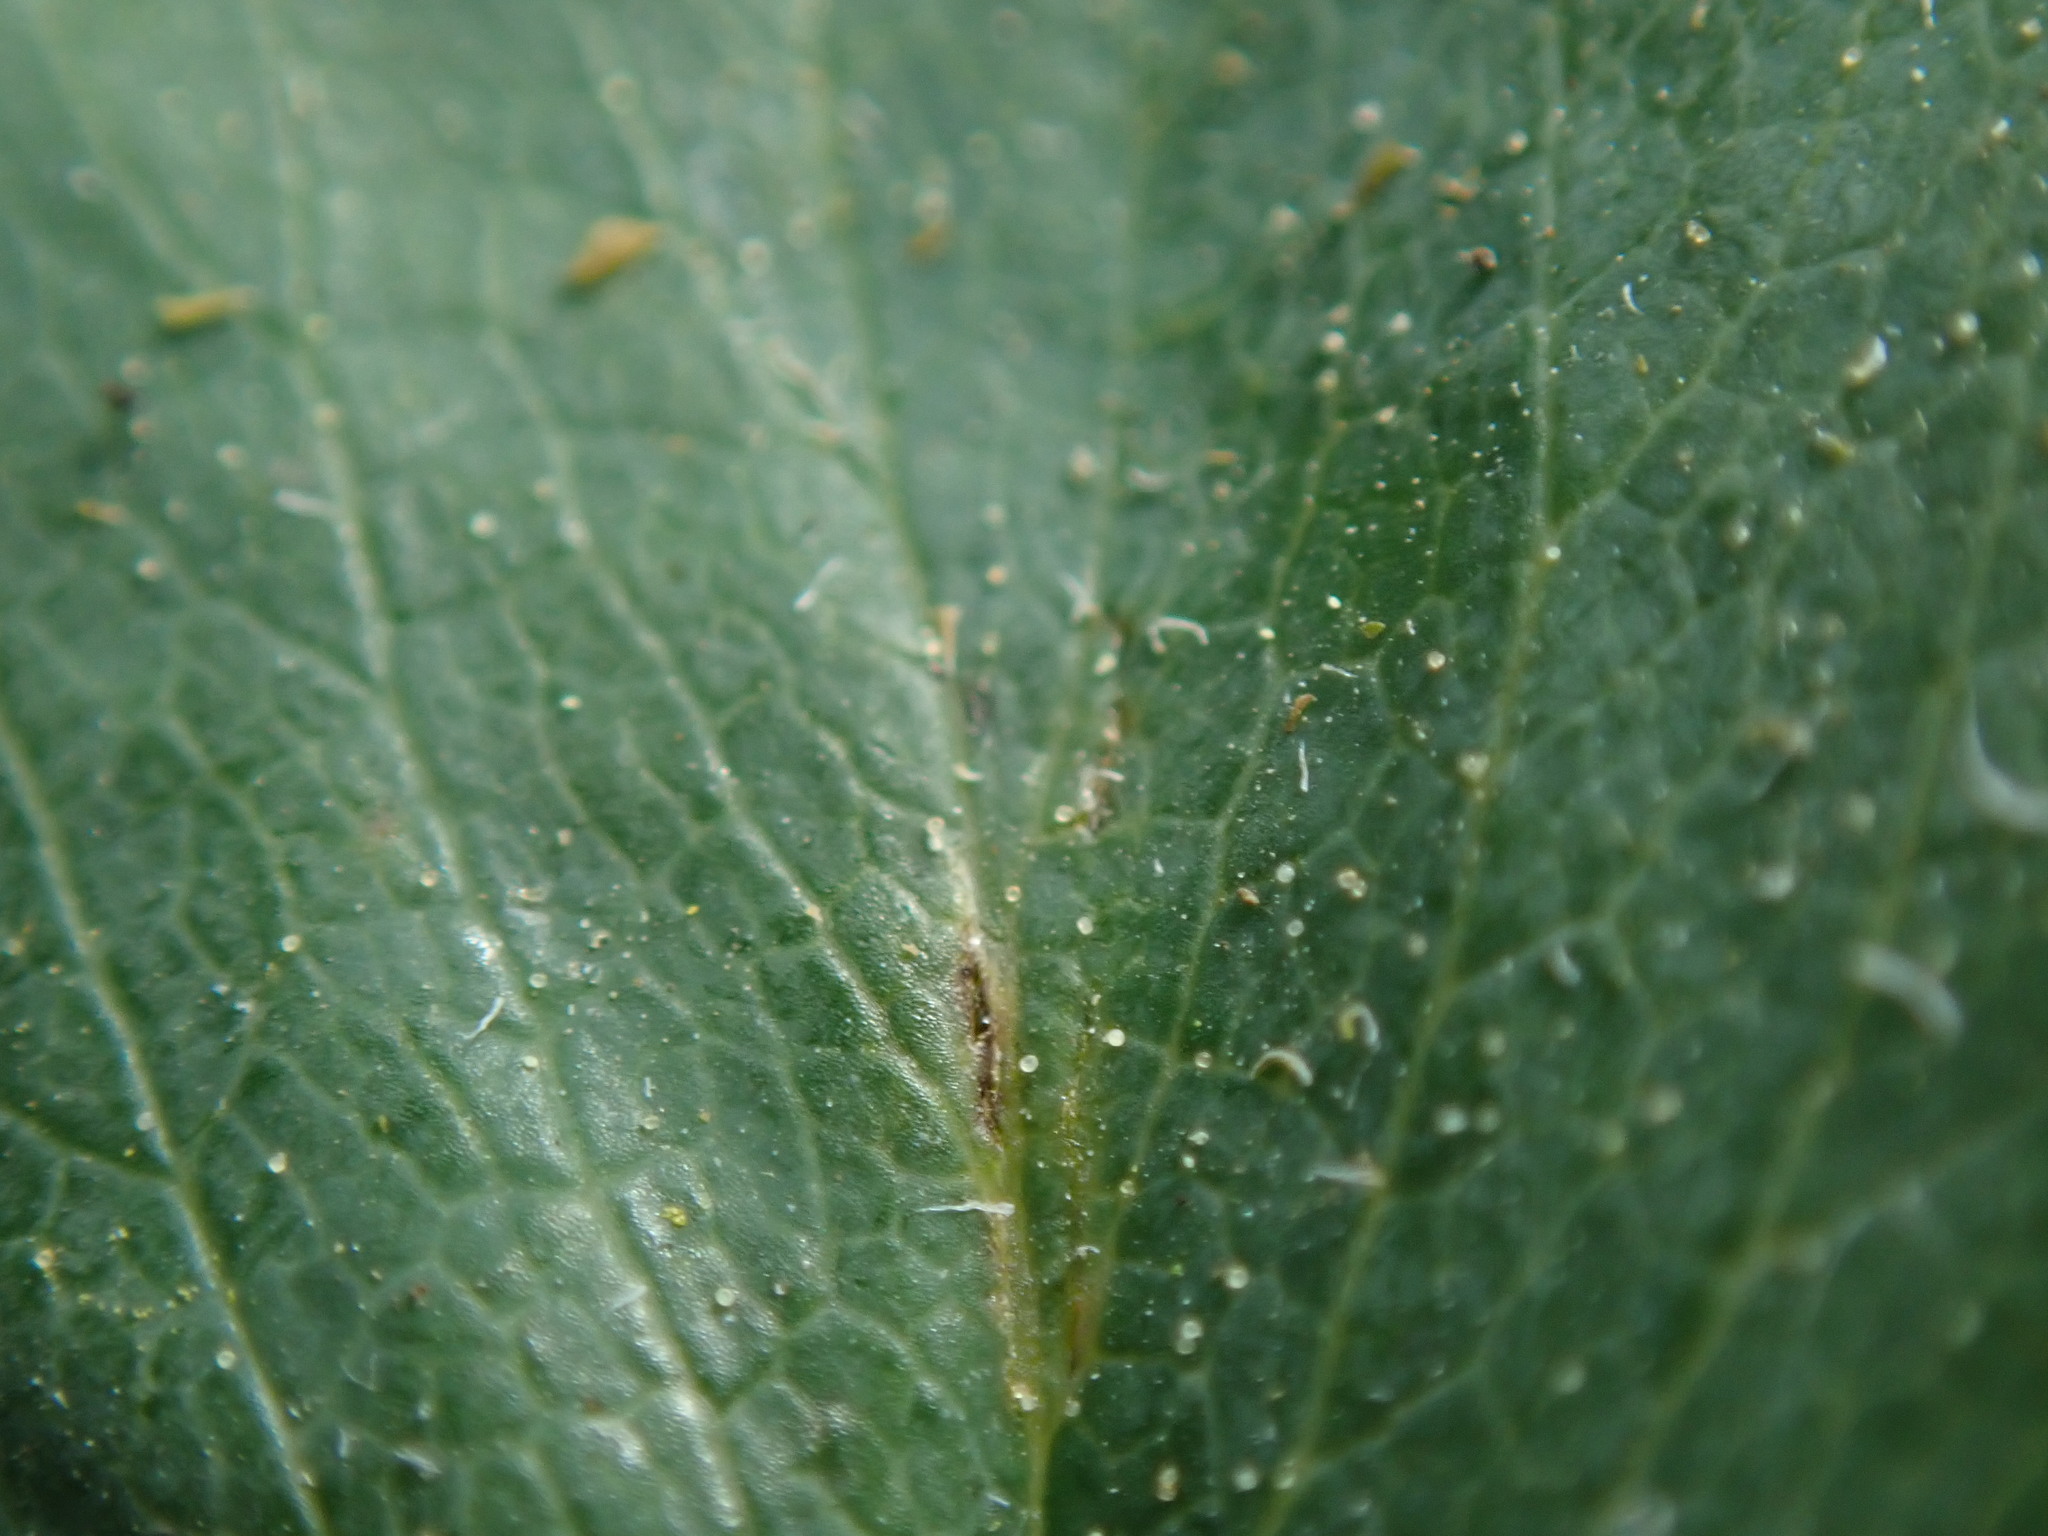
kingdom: Plantae
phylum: Tracheophyta
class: Magnoliopsida
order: Rosales
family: Rosaceae
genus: Fragaria
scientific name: Fragaria ananassa
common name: Garden strawberry
